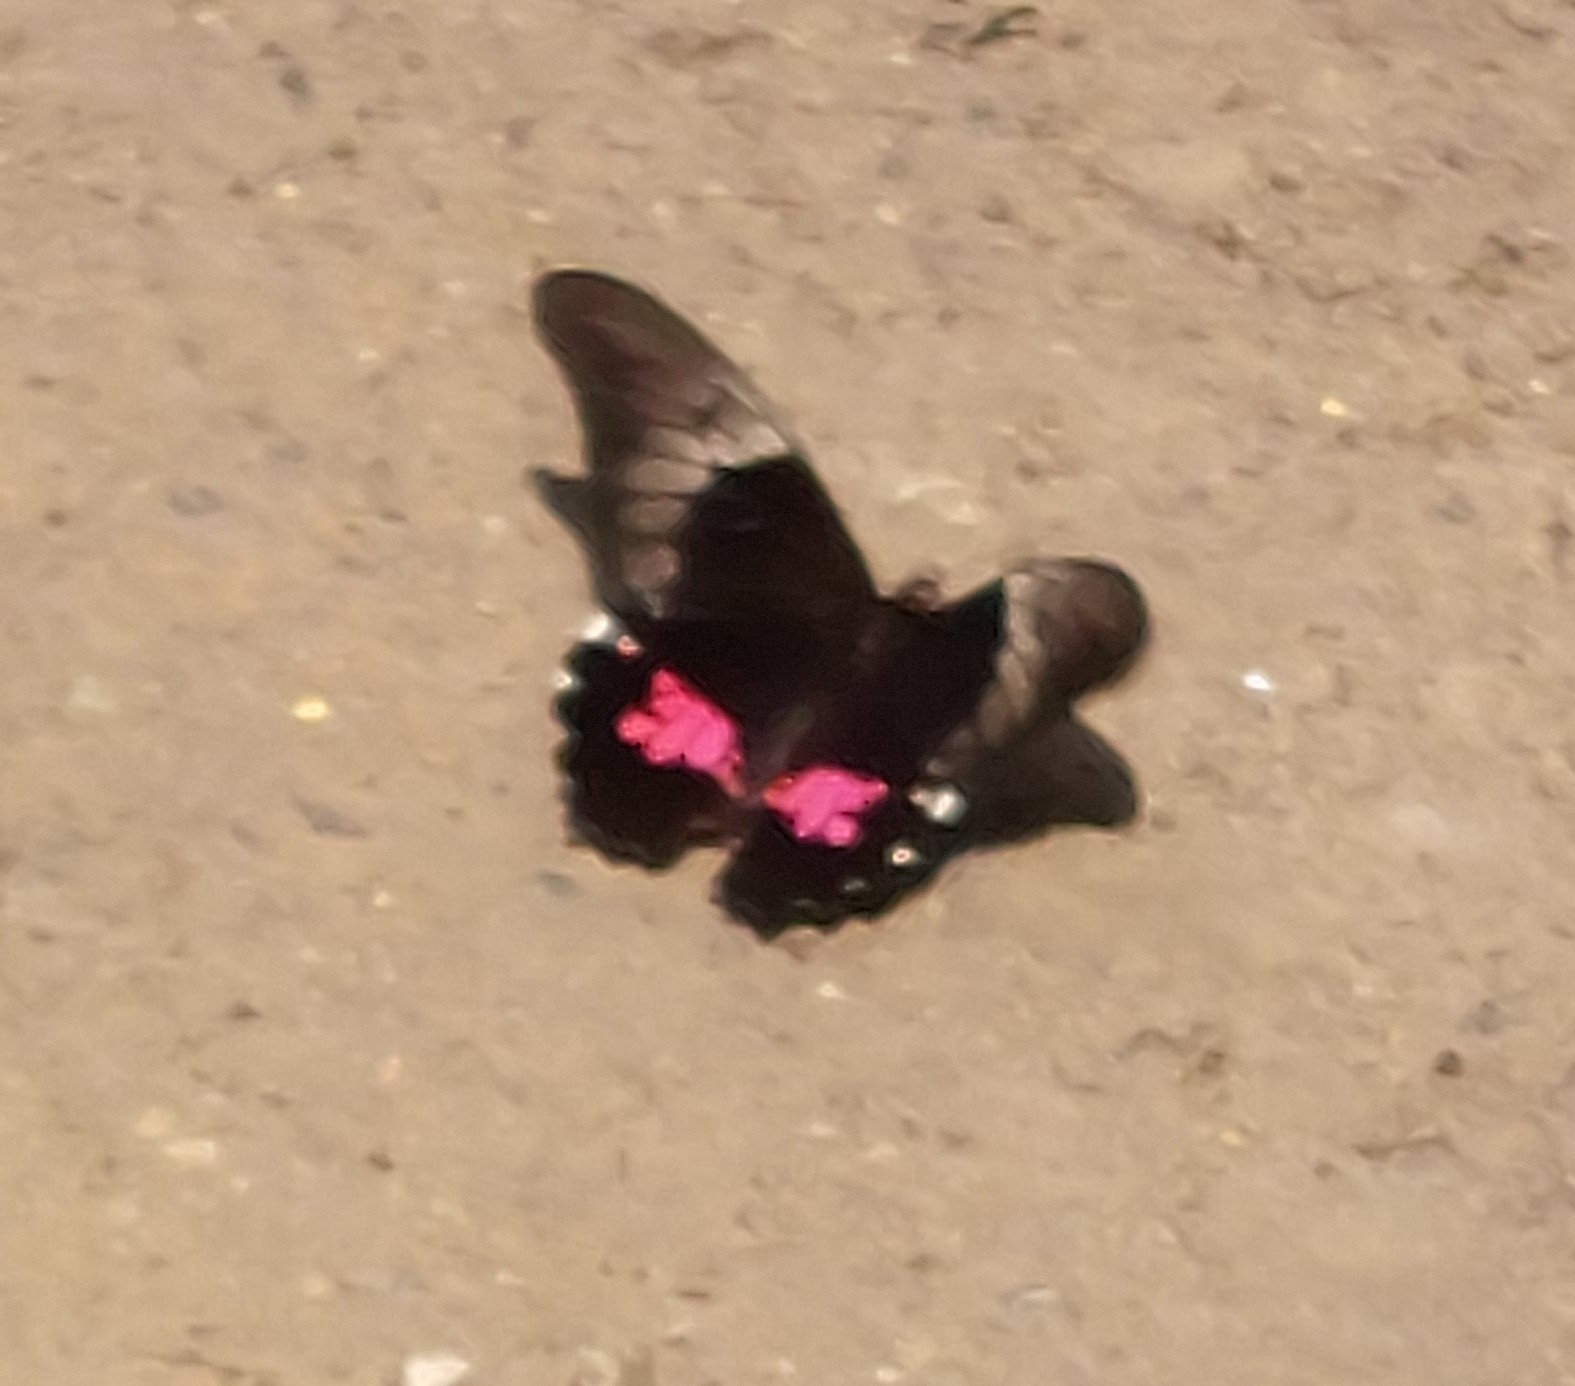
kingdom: Animalia
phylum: Arthropoda
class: Insecta
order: Lepidoptera
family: Papilionidae
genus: Papilio
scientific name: Papilio anchisiades
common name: Idaes swallowtail
